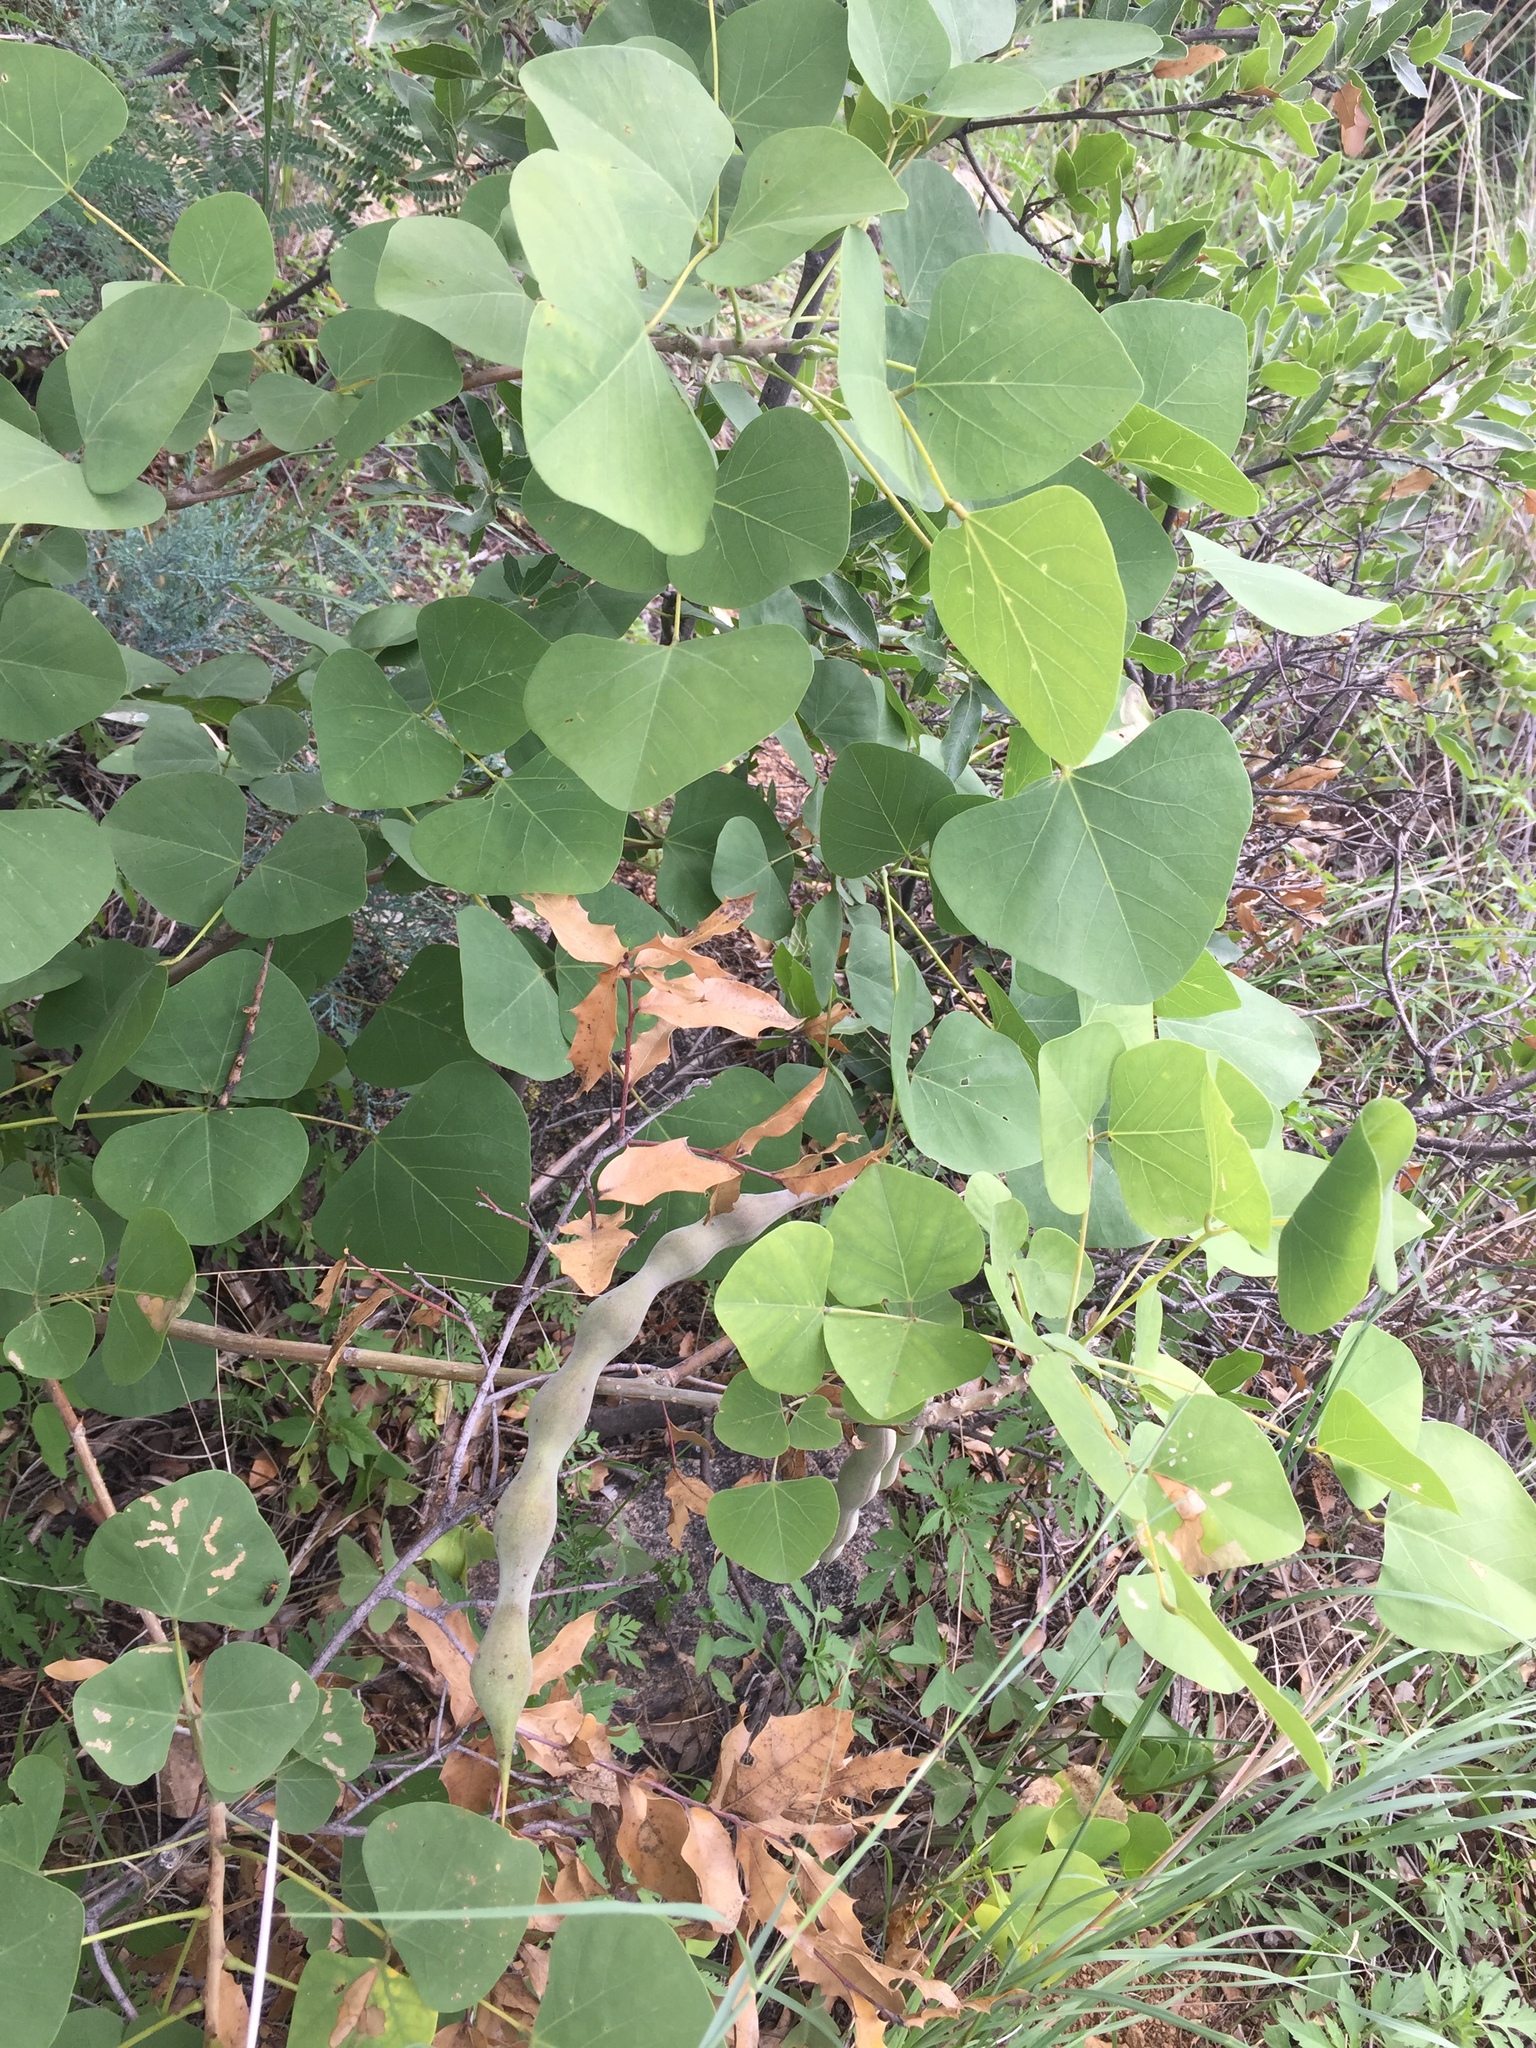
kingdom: Plantae
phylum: Tracheophyta
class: Magnoliopsida
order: Fabales
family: Fabaceae
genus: Erythrina
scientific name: Erythrina flabelliformis
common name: Chilicote
